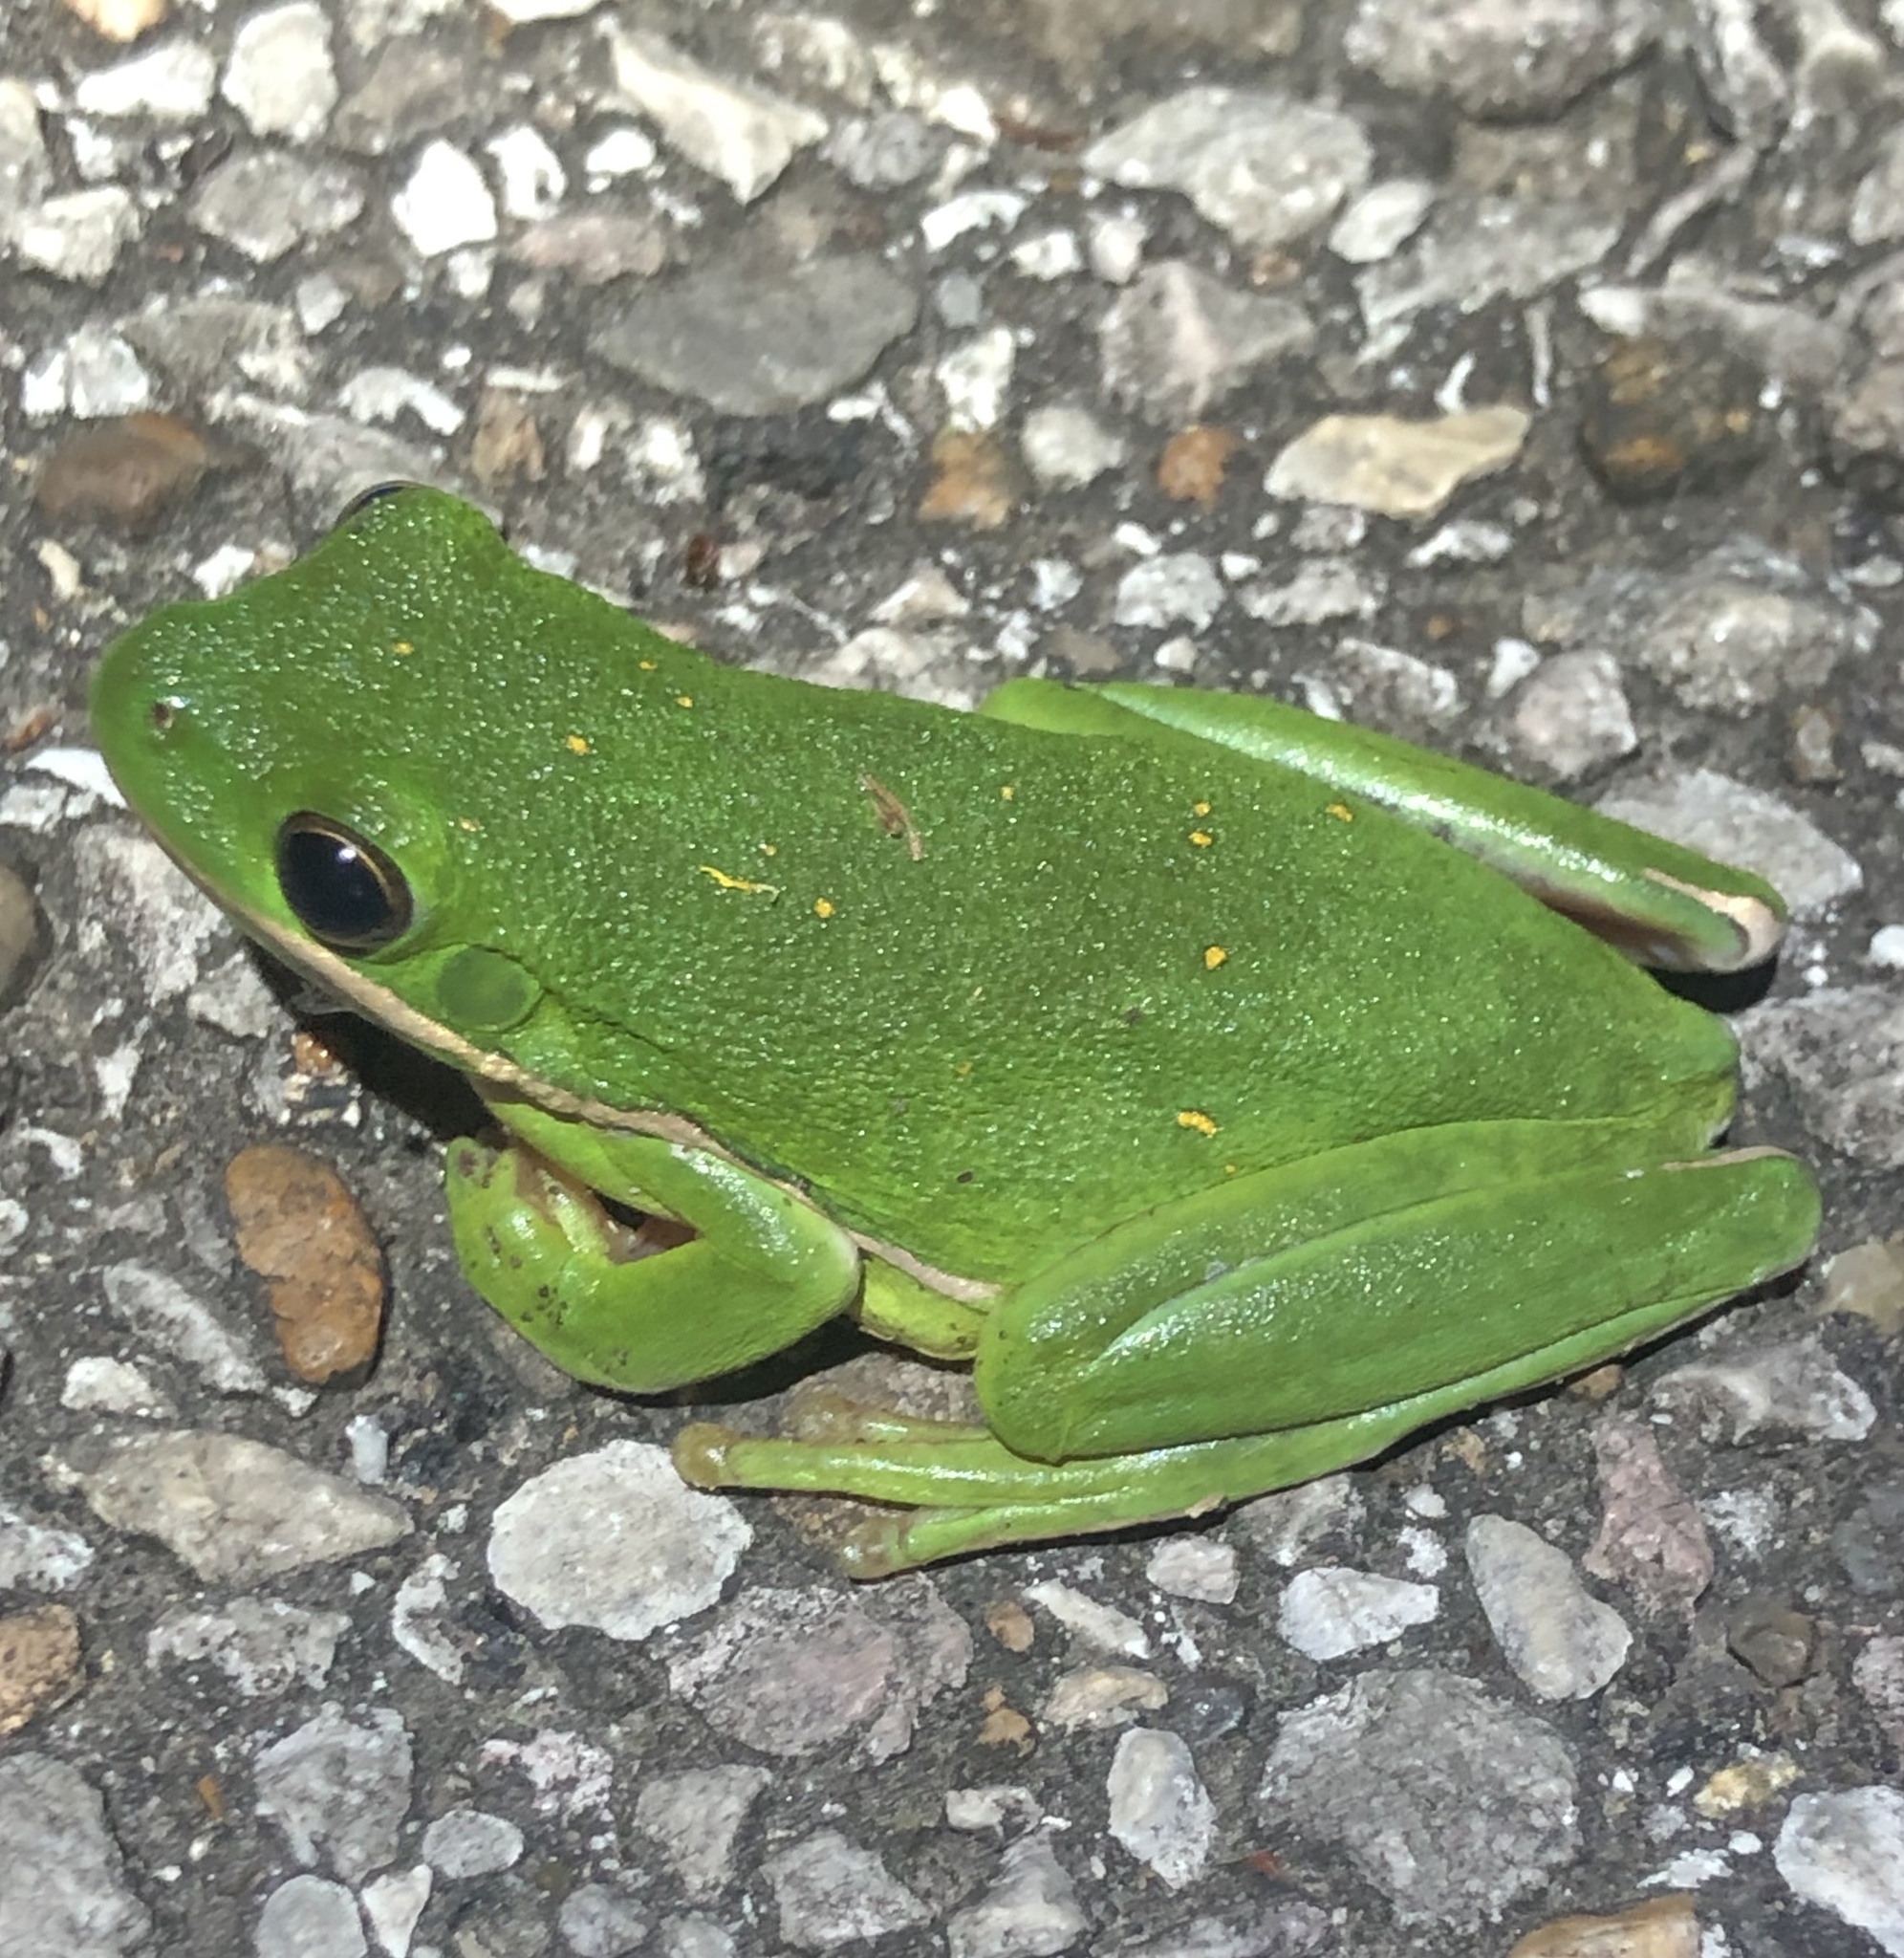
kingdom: Animalia
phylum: Chordata
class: Amphibia
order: Anura
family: Hylidae
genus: Dryophytes
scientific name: Dryophytes cinereus
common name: Green treefrog
